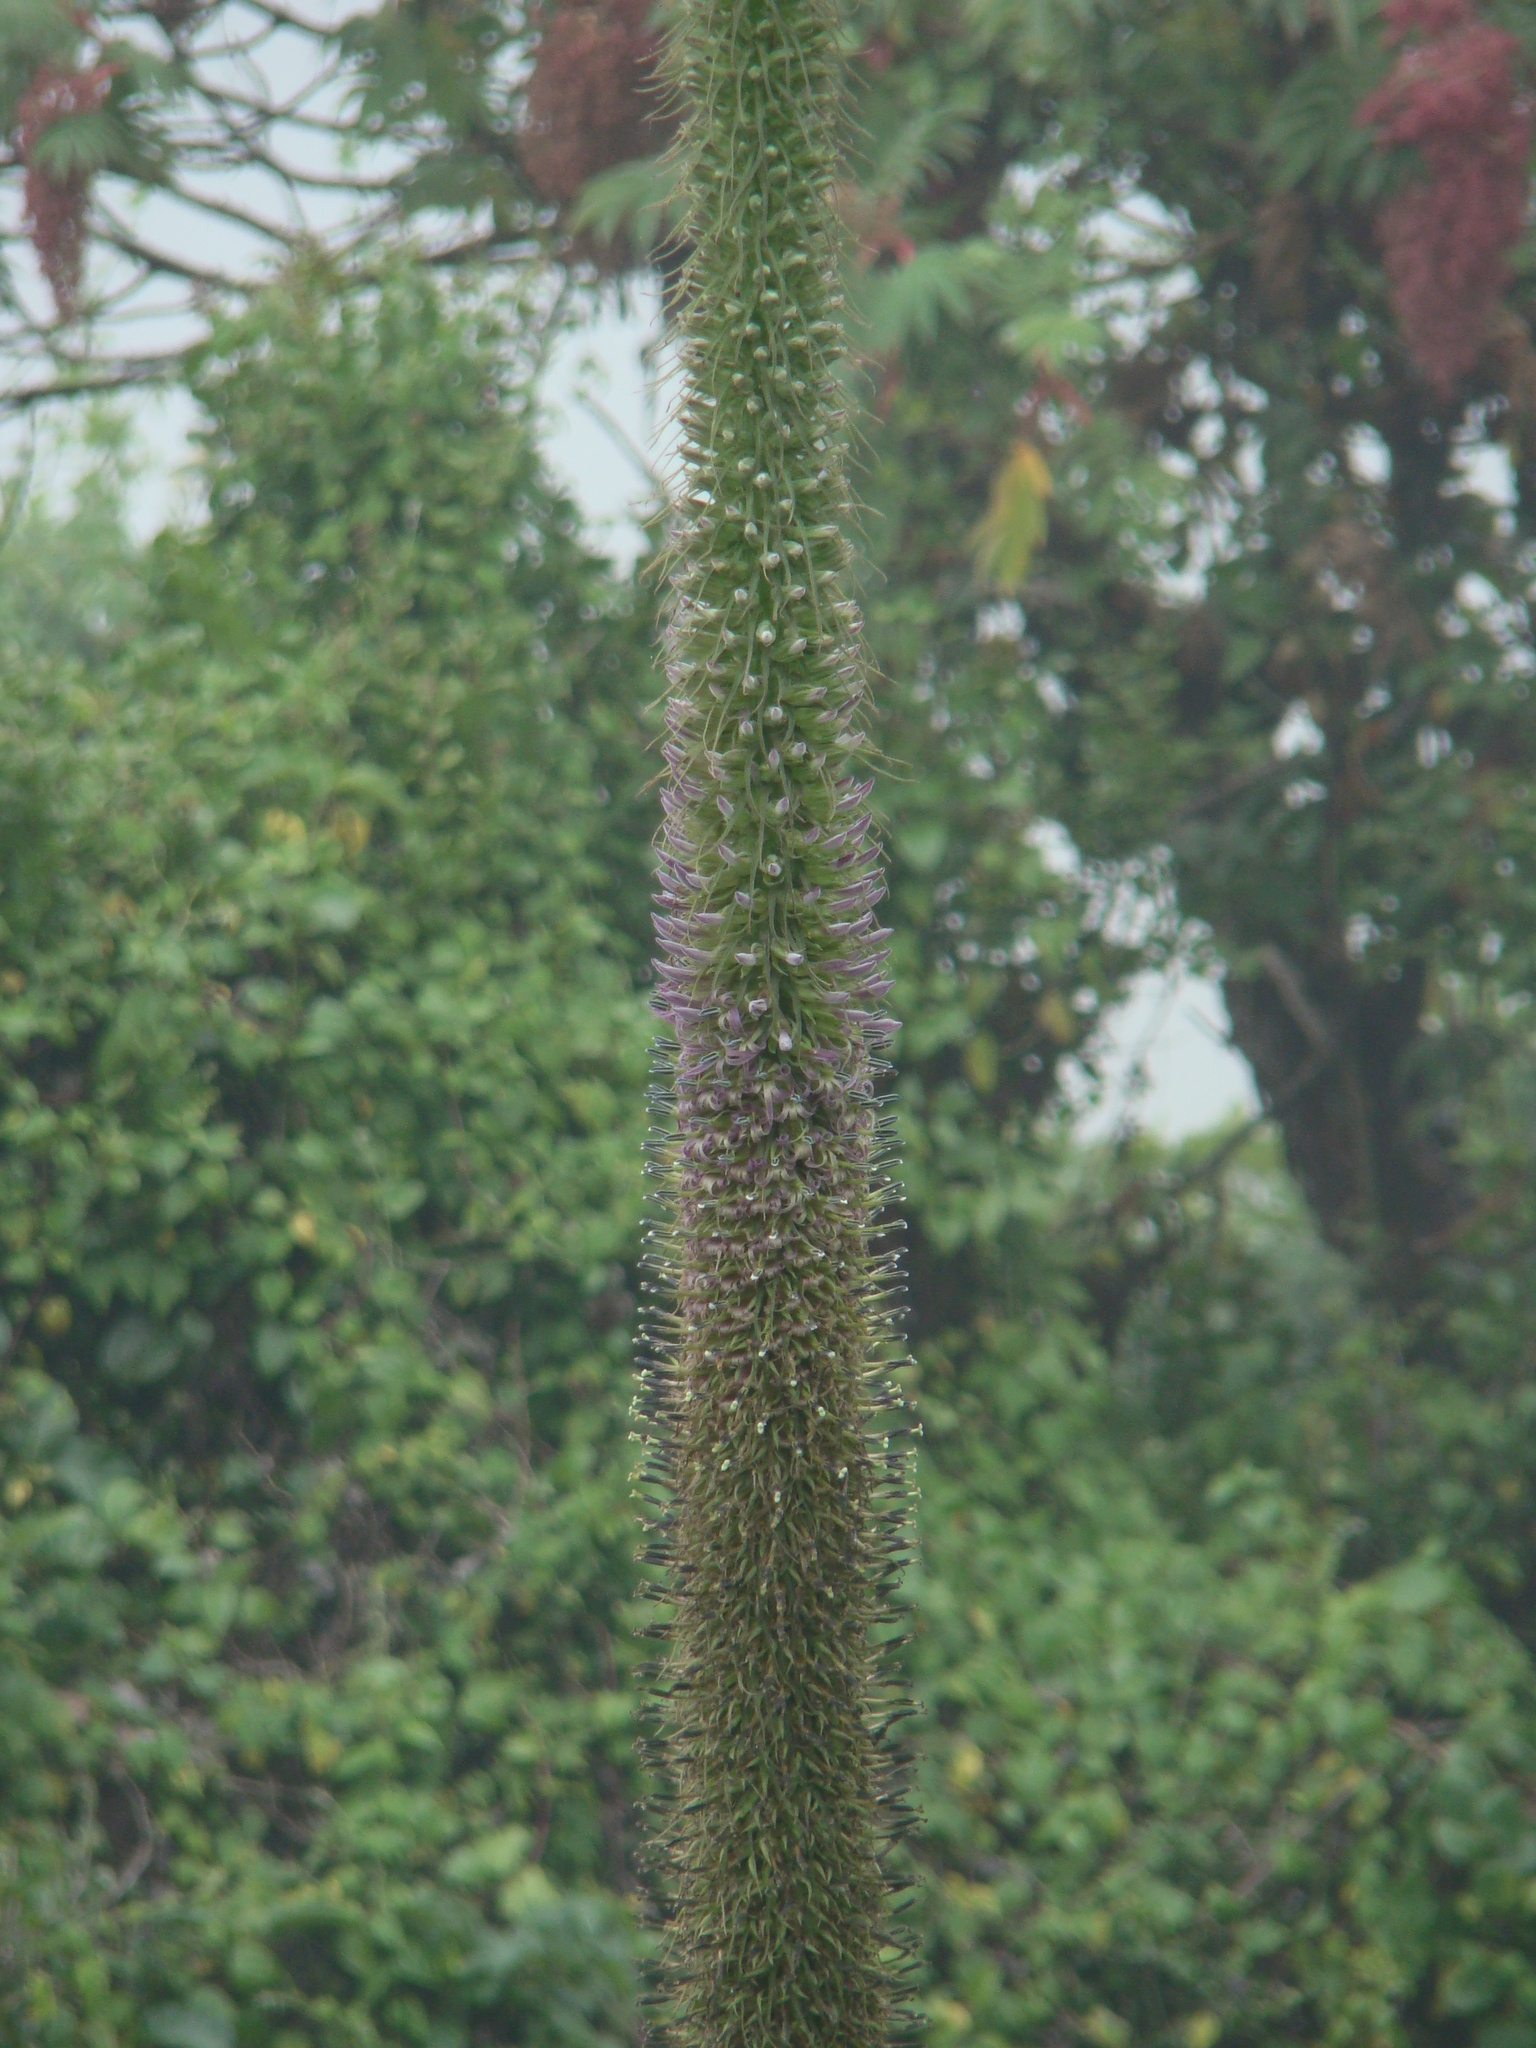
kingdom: Plantae
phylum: Tracheophyta
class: Magnoliopsida
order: Asterales
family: Campanulaceae
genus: Lobelia
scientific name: Lobelia giberroa
